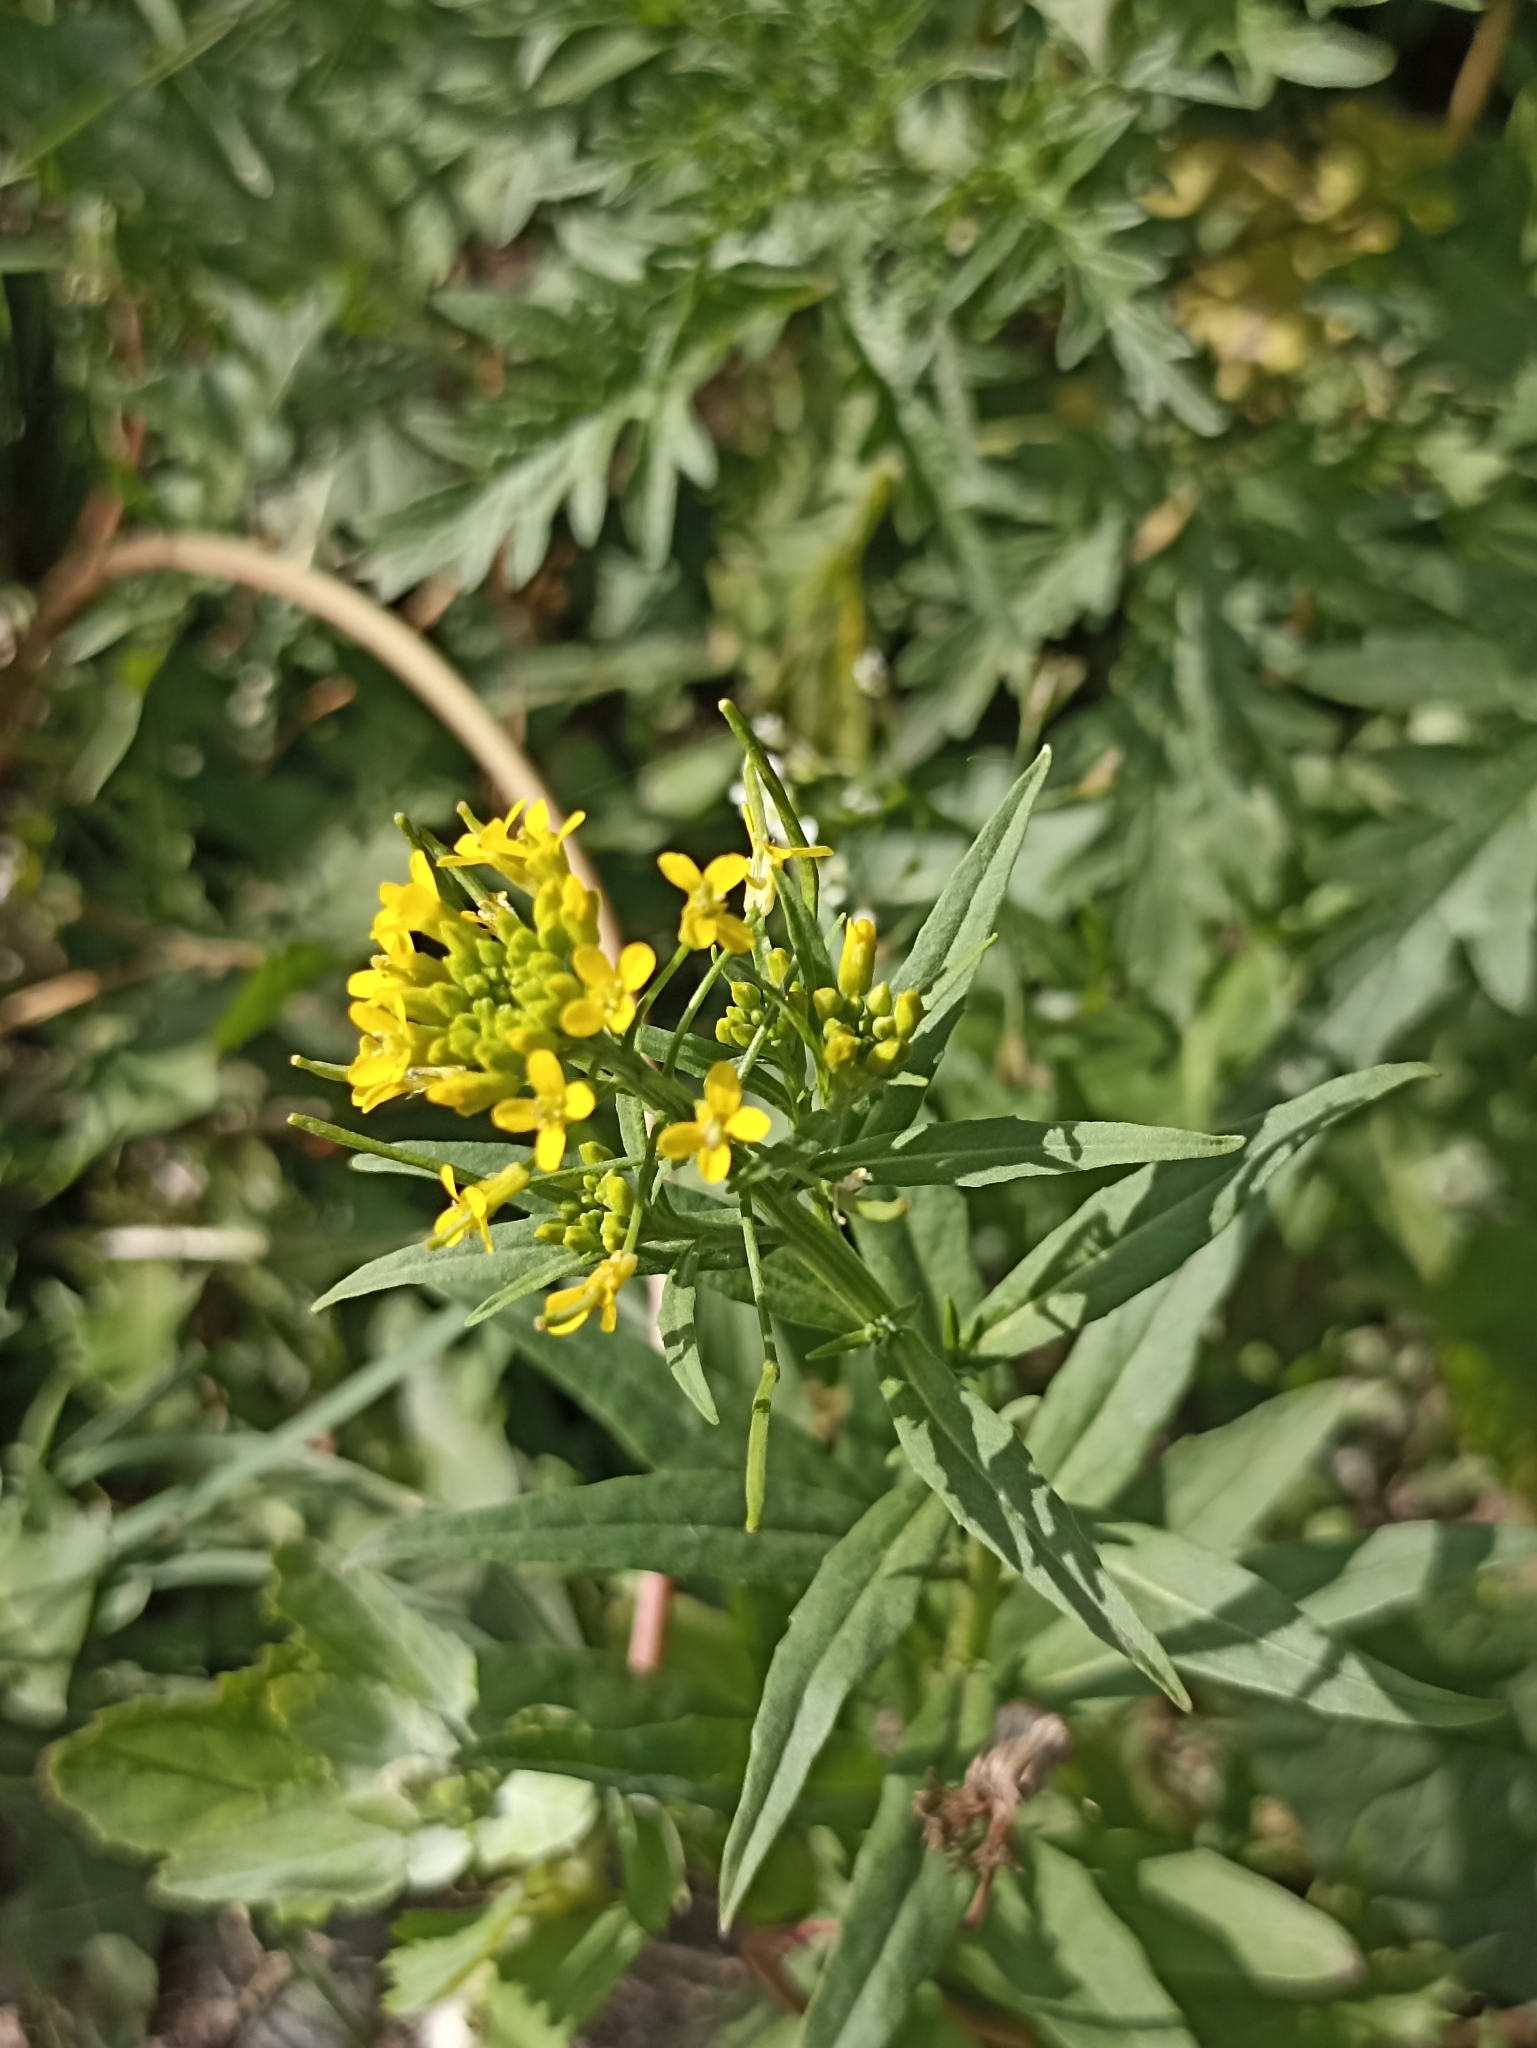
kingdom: Plantae
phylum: Tracheophyta
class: Magnoliopsida
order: Brassicales
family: Brassicaceae
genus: Erysimum
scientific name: Erysimum cheiranthoides
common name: Treacle mustard
